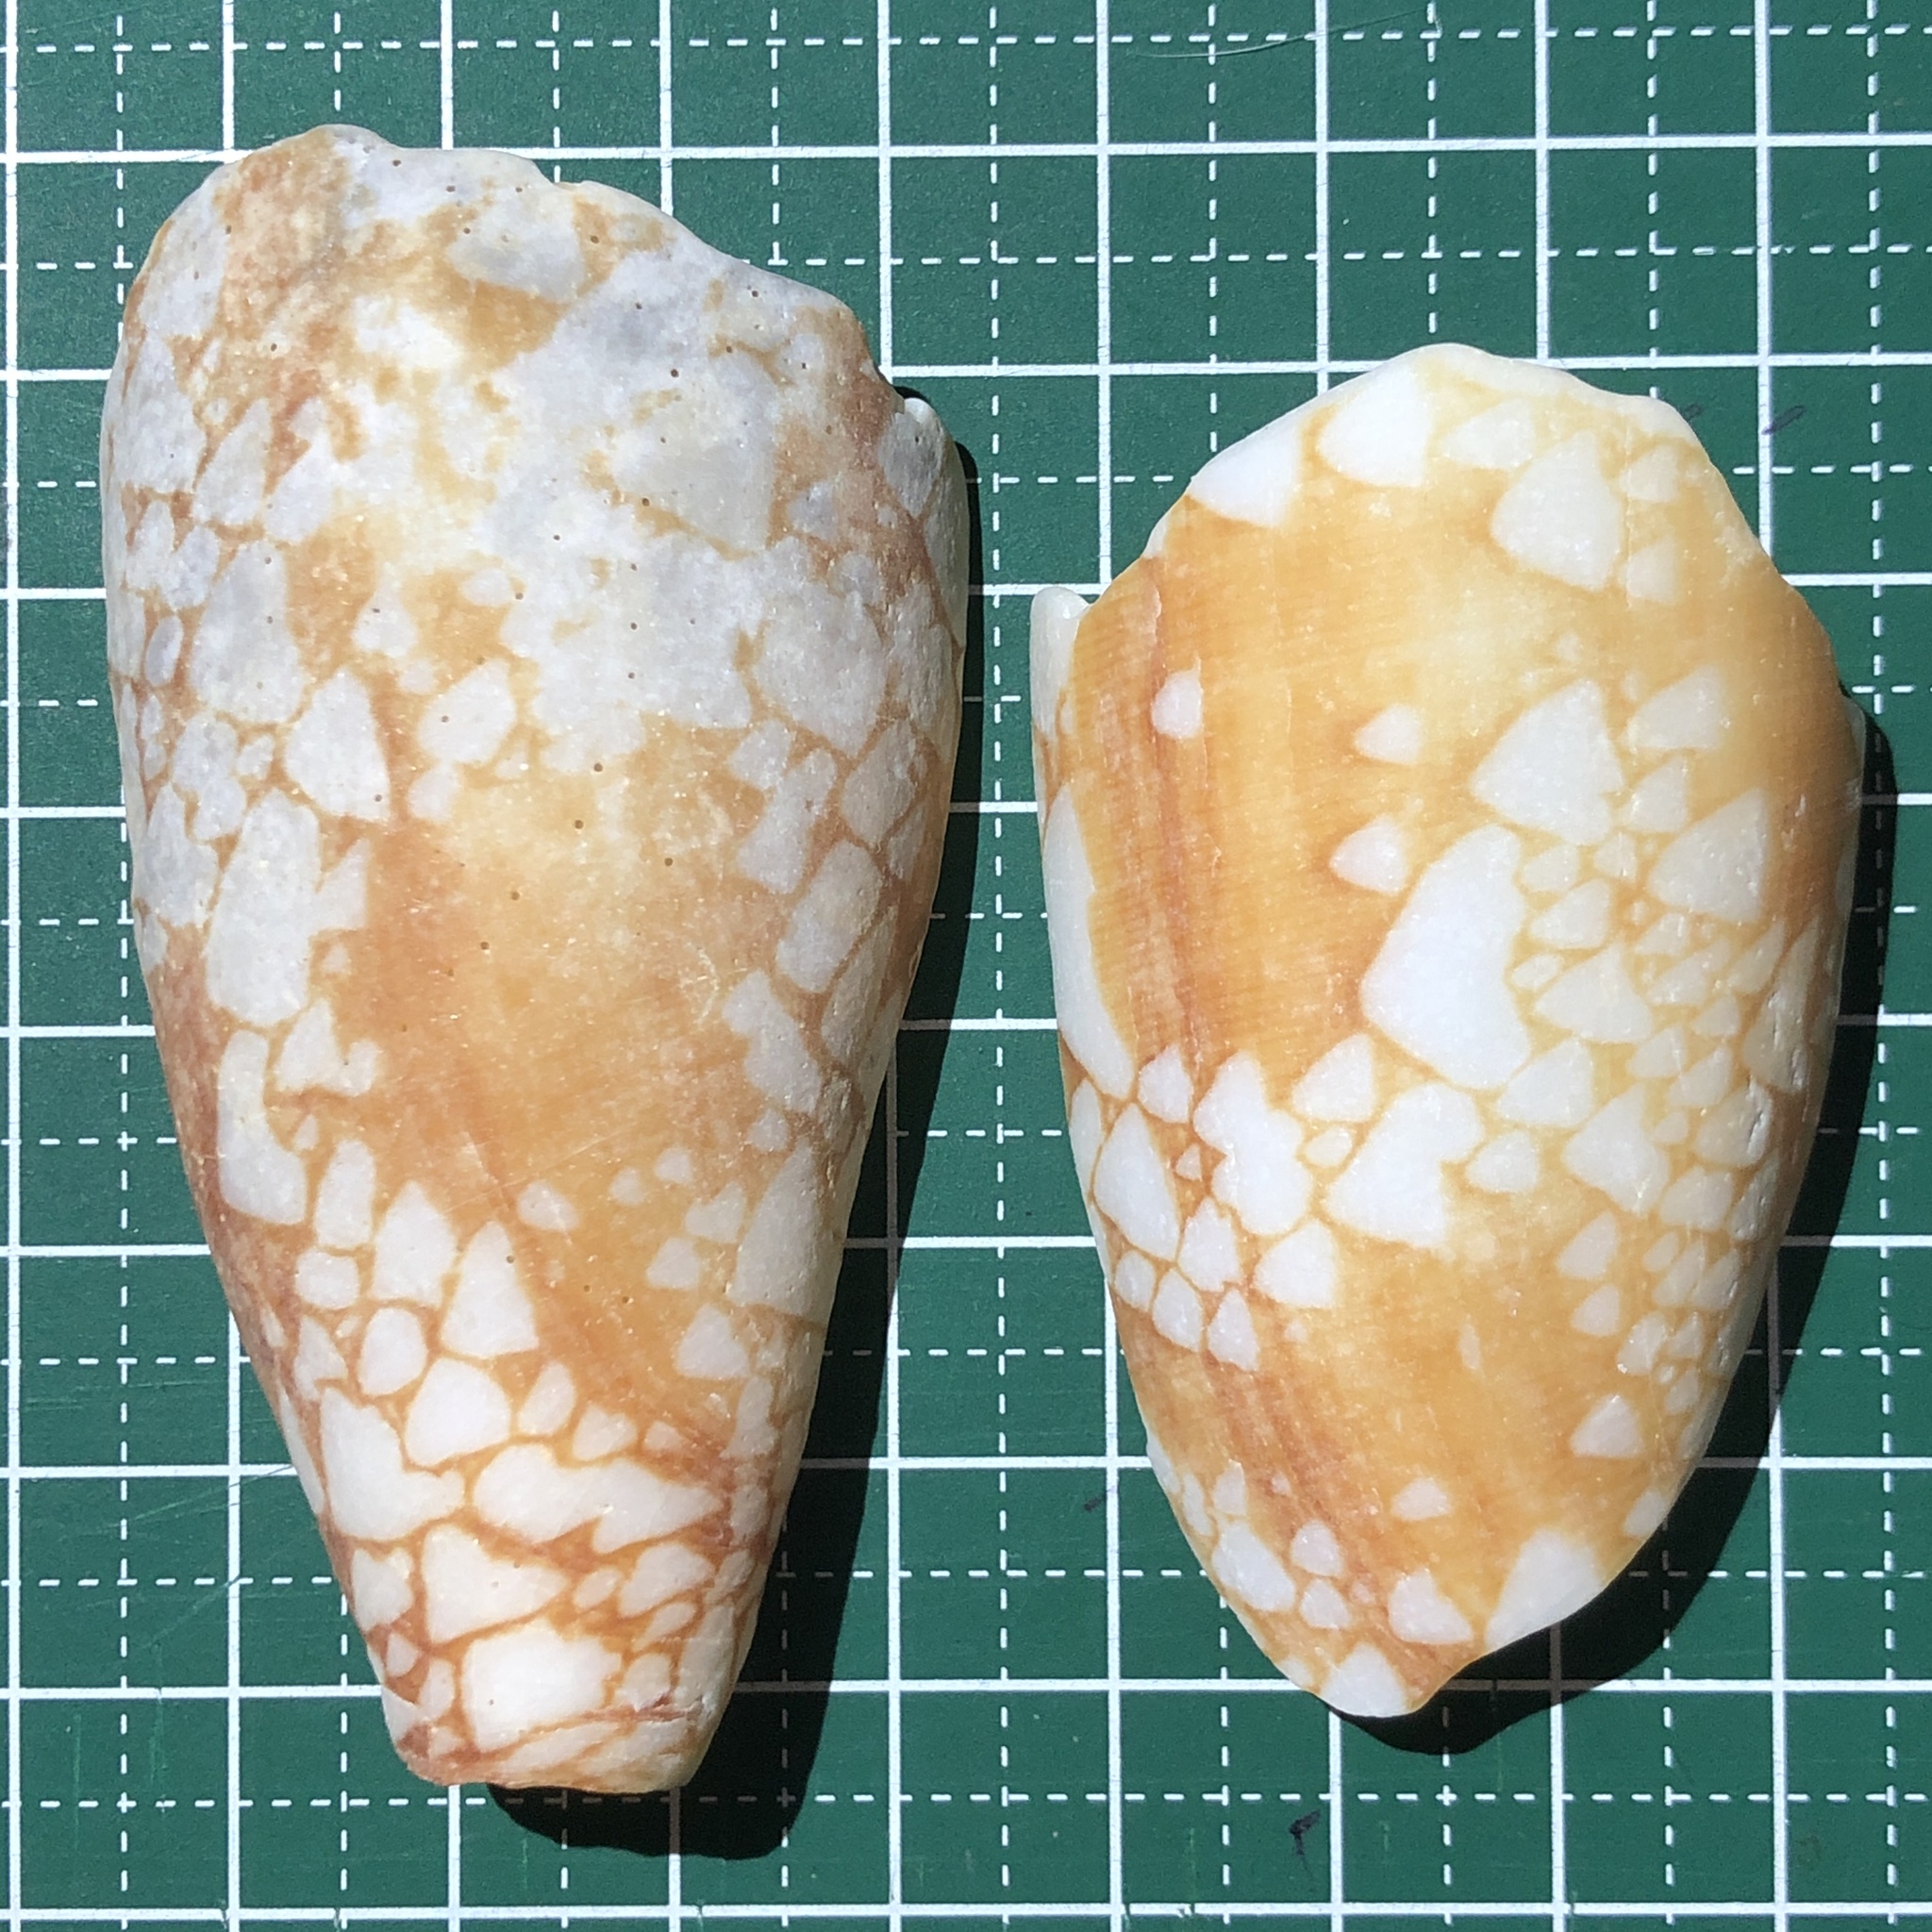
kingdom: Animalia
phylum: Mollusca
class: Gastropoda
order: Neogastropoda
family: Conidae
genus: Conus
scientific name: Conus aulicus
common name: Court cone
